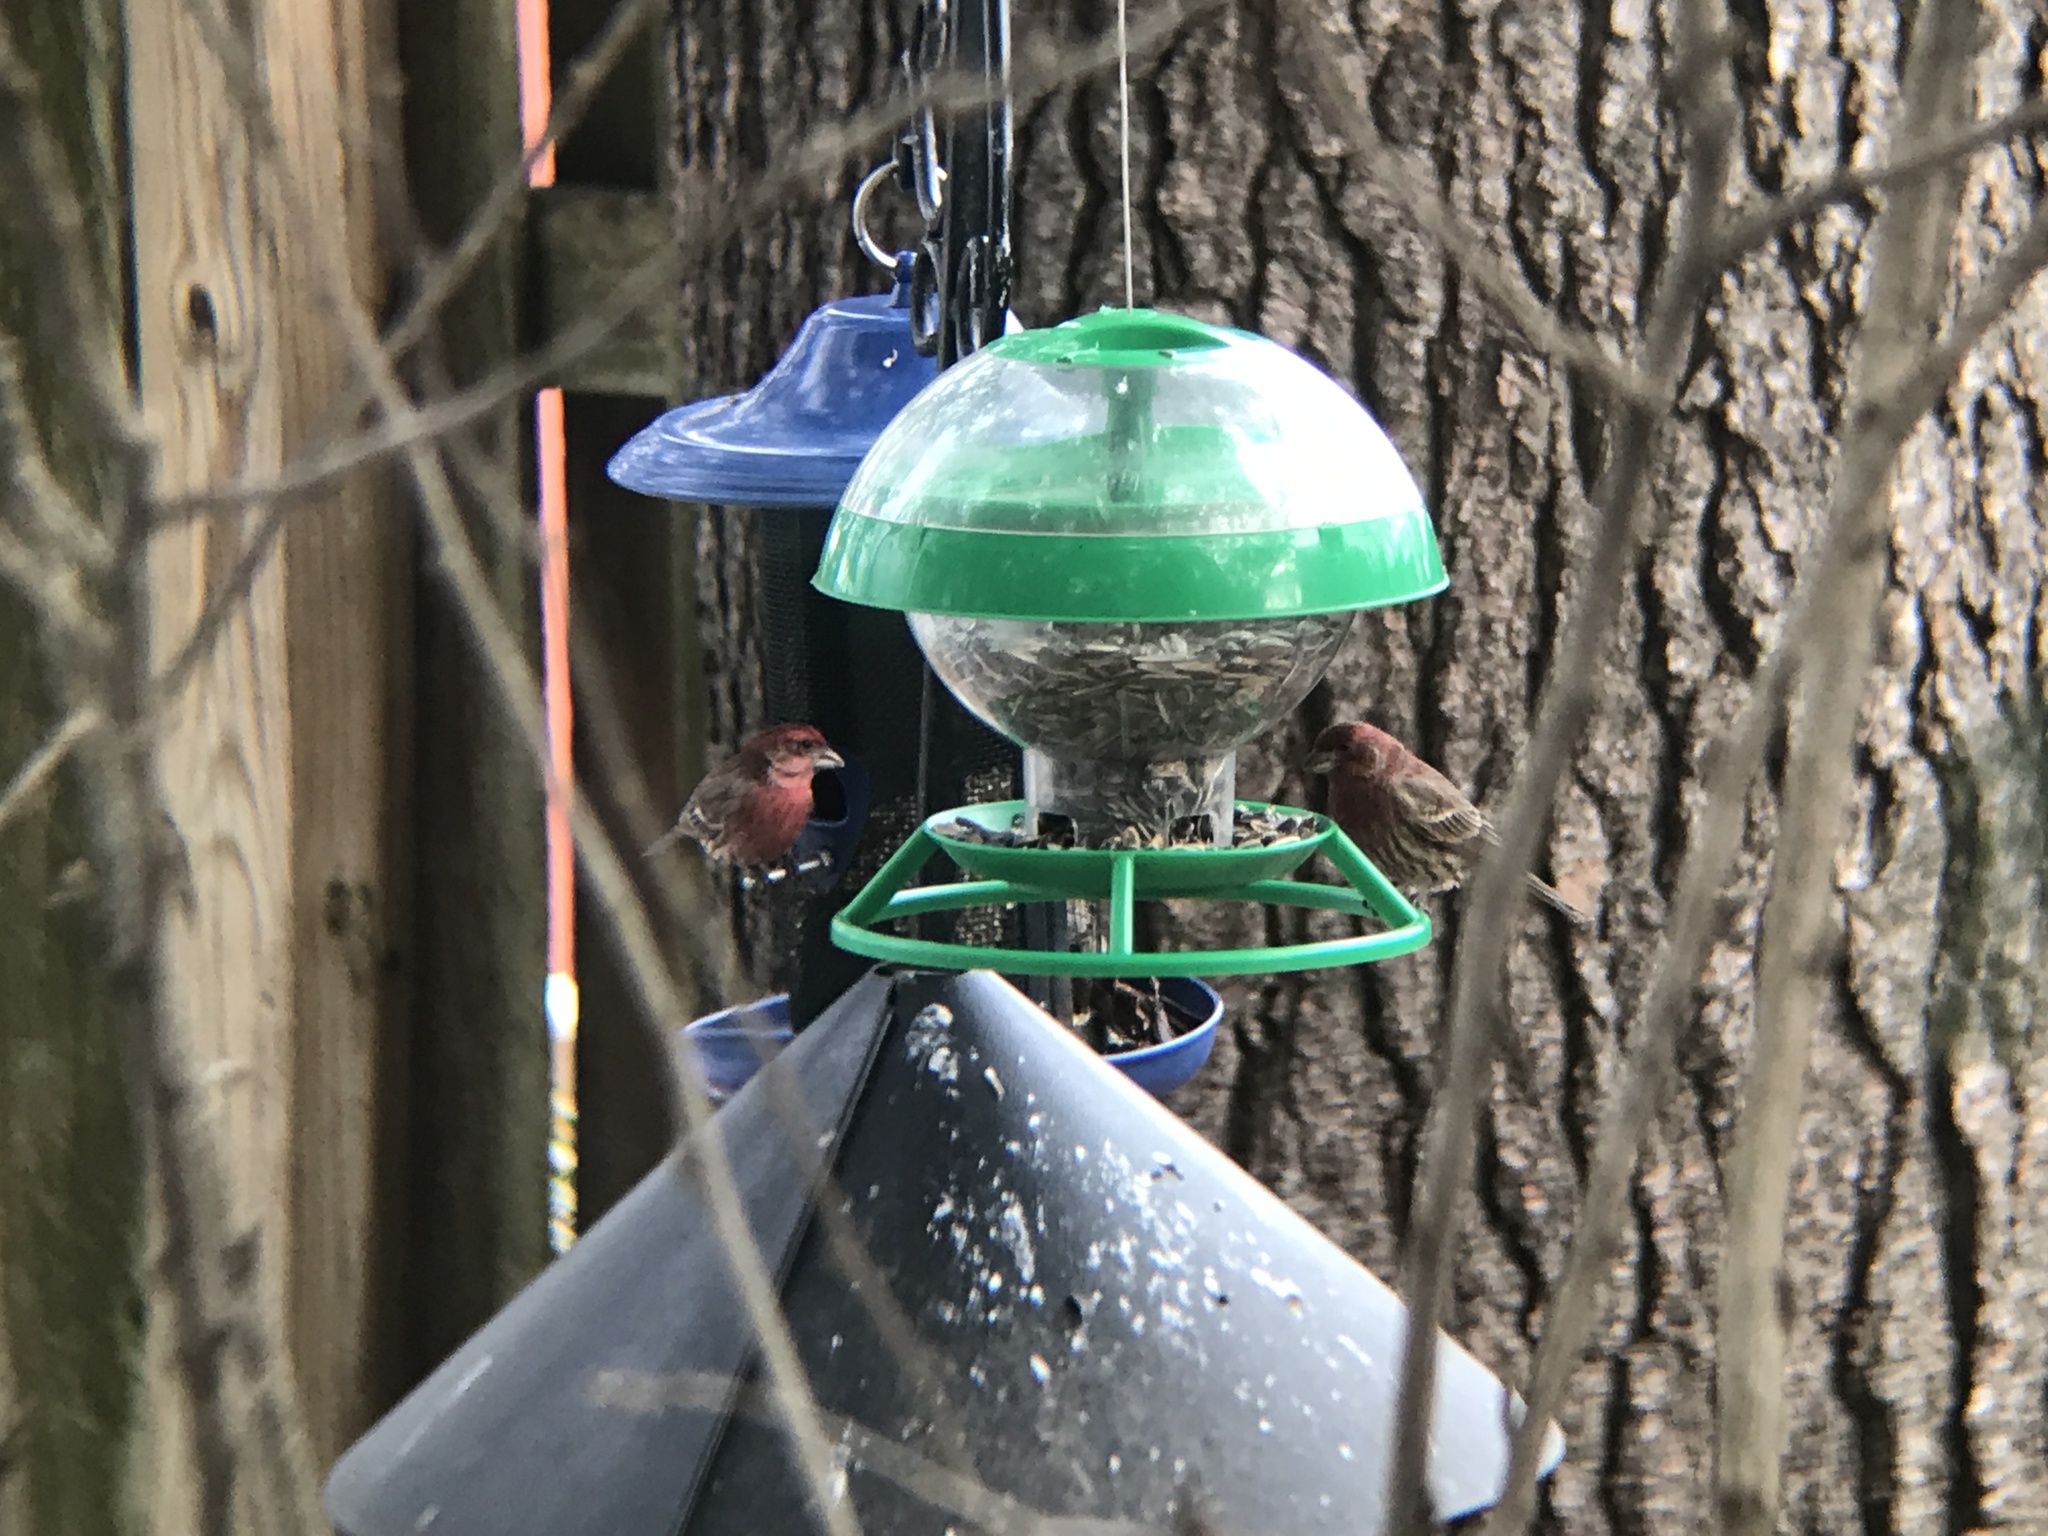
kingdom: Animalia
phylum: Chordata
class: Aves
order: Passeriformes
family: Fringillidae
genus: Haemorhous
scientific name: Haemorhous mexicanus
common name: House finch
